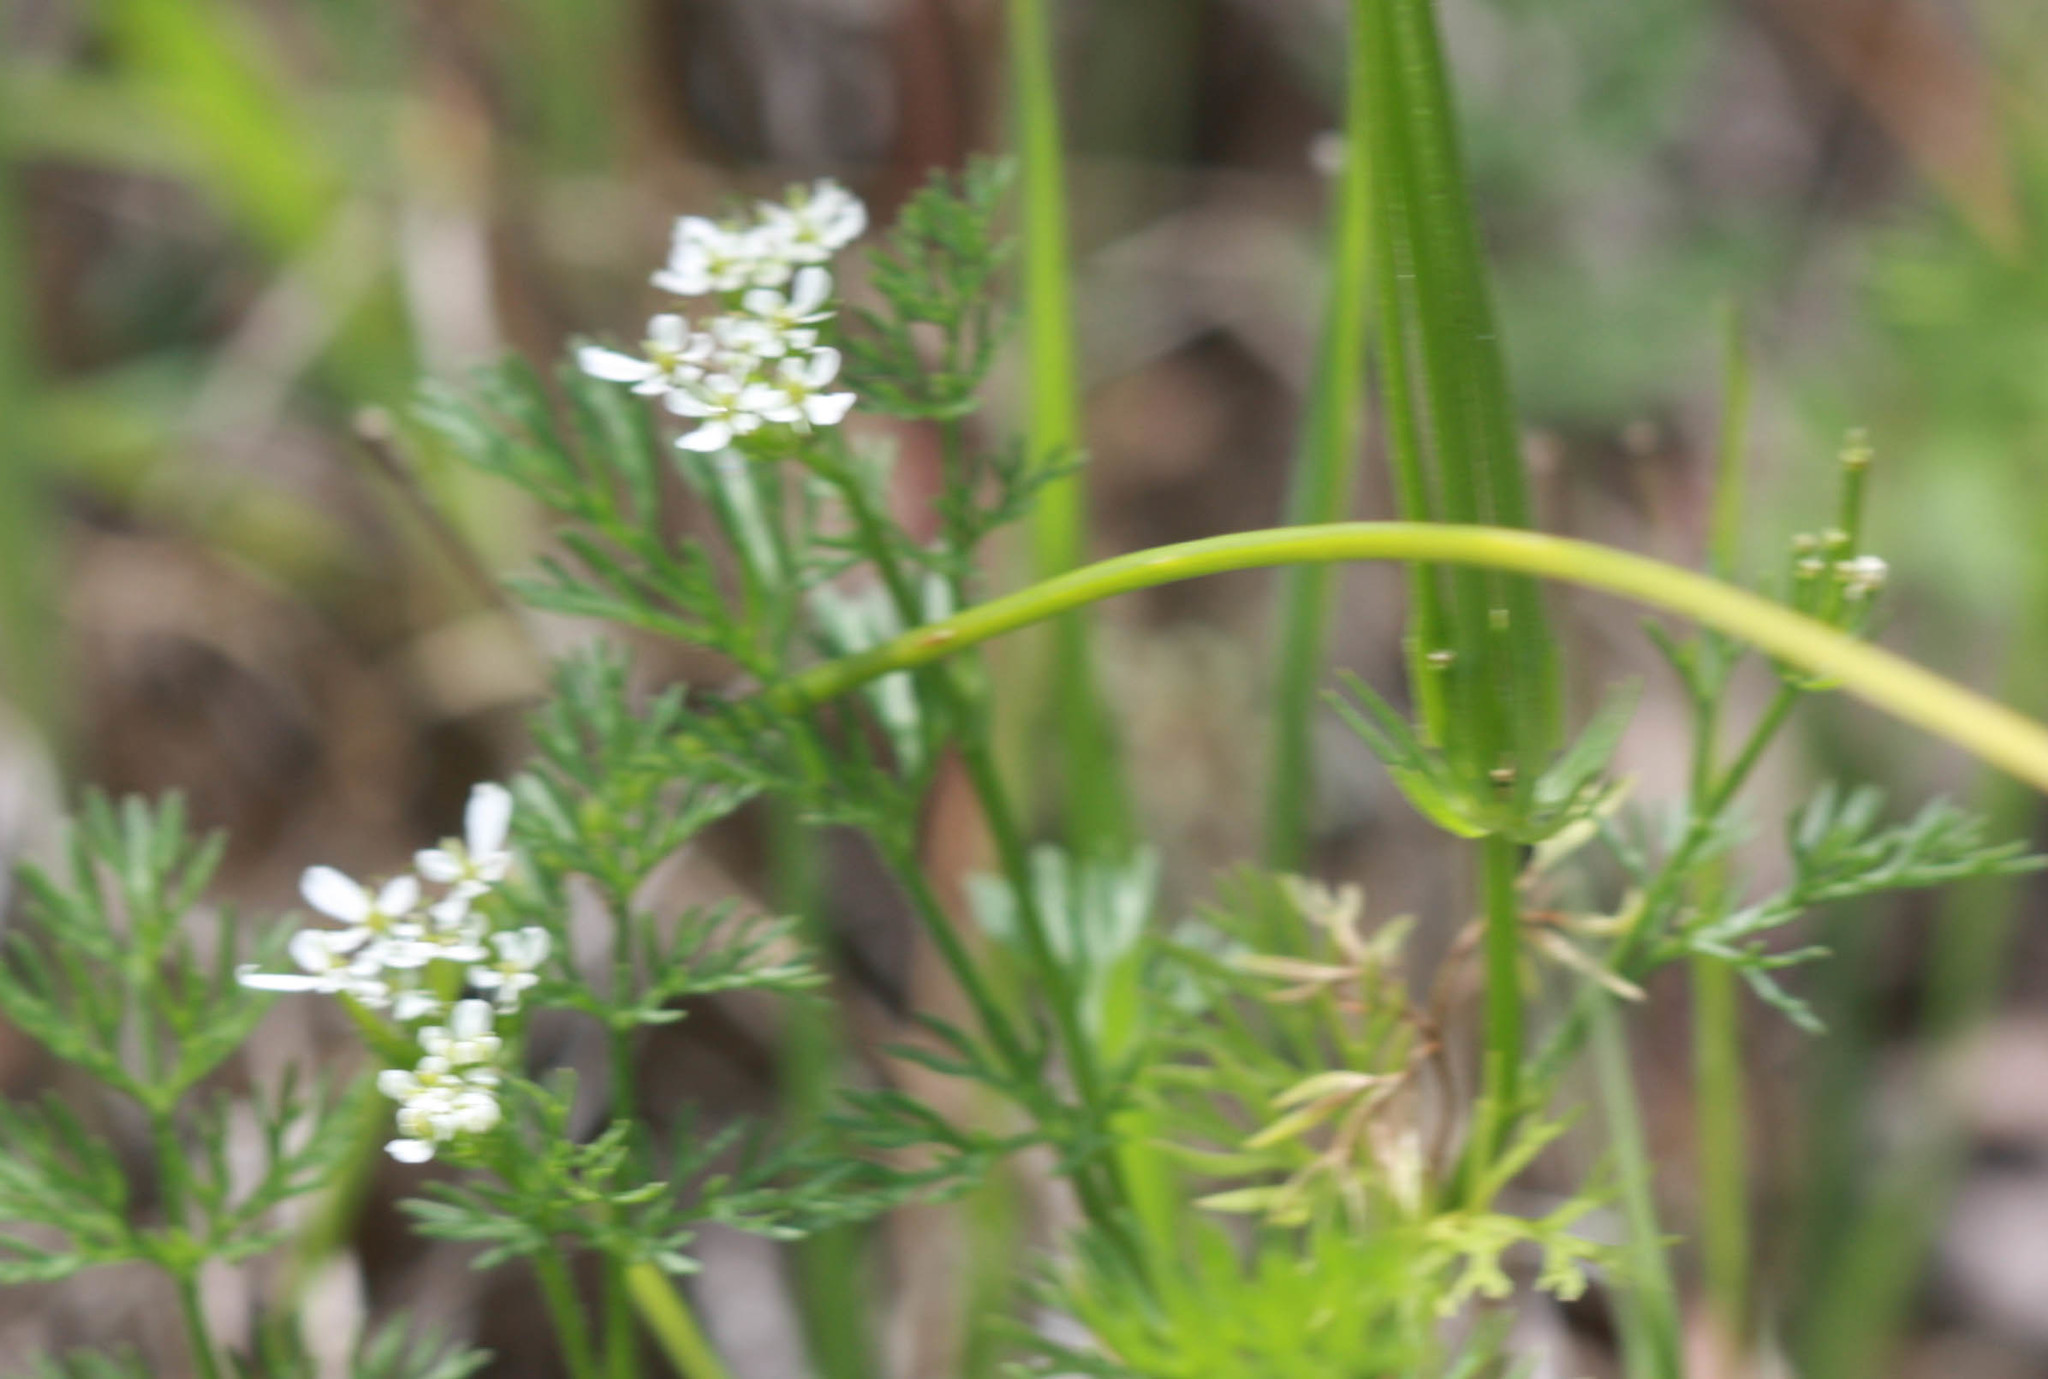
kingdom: Plantae
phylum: Tracheophyta
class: Magnoliopsida
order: Apiales
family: Apiaceae
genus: Scandix
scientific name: Scandix pecten-veneris
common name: Shepherd's-needle
